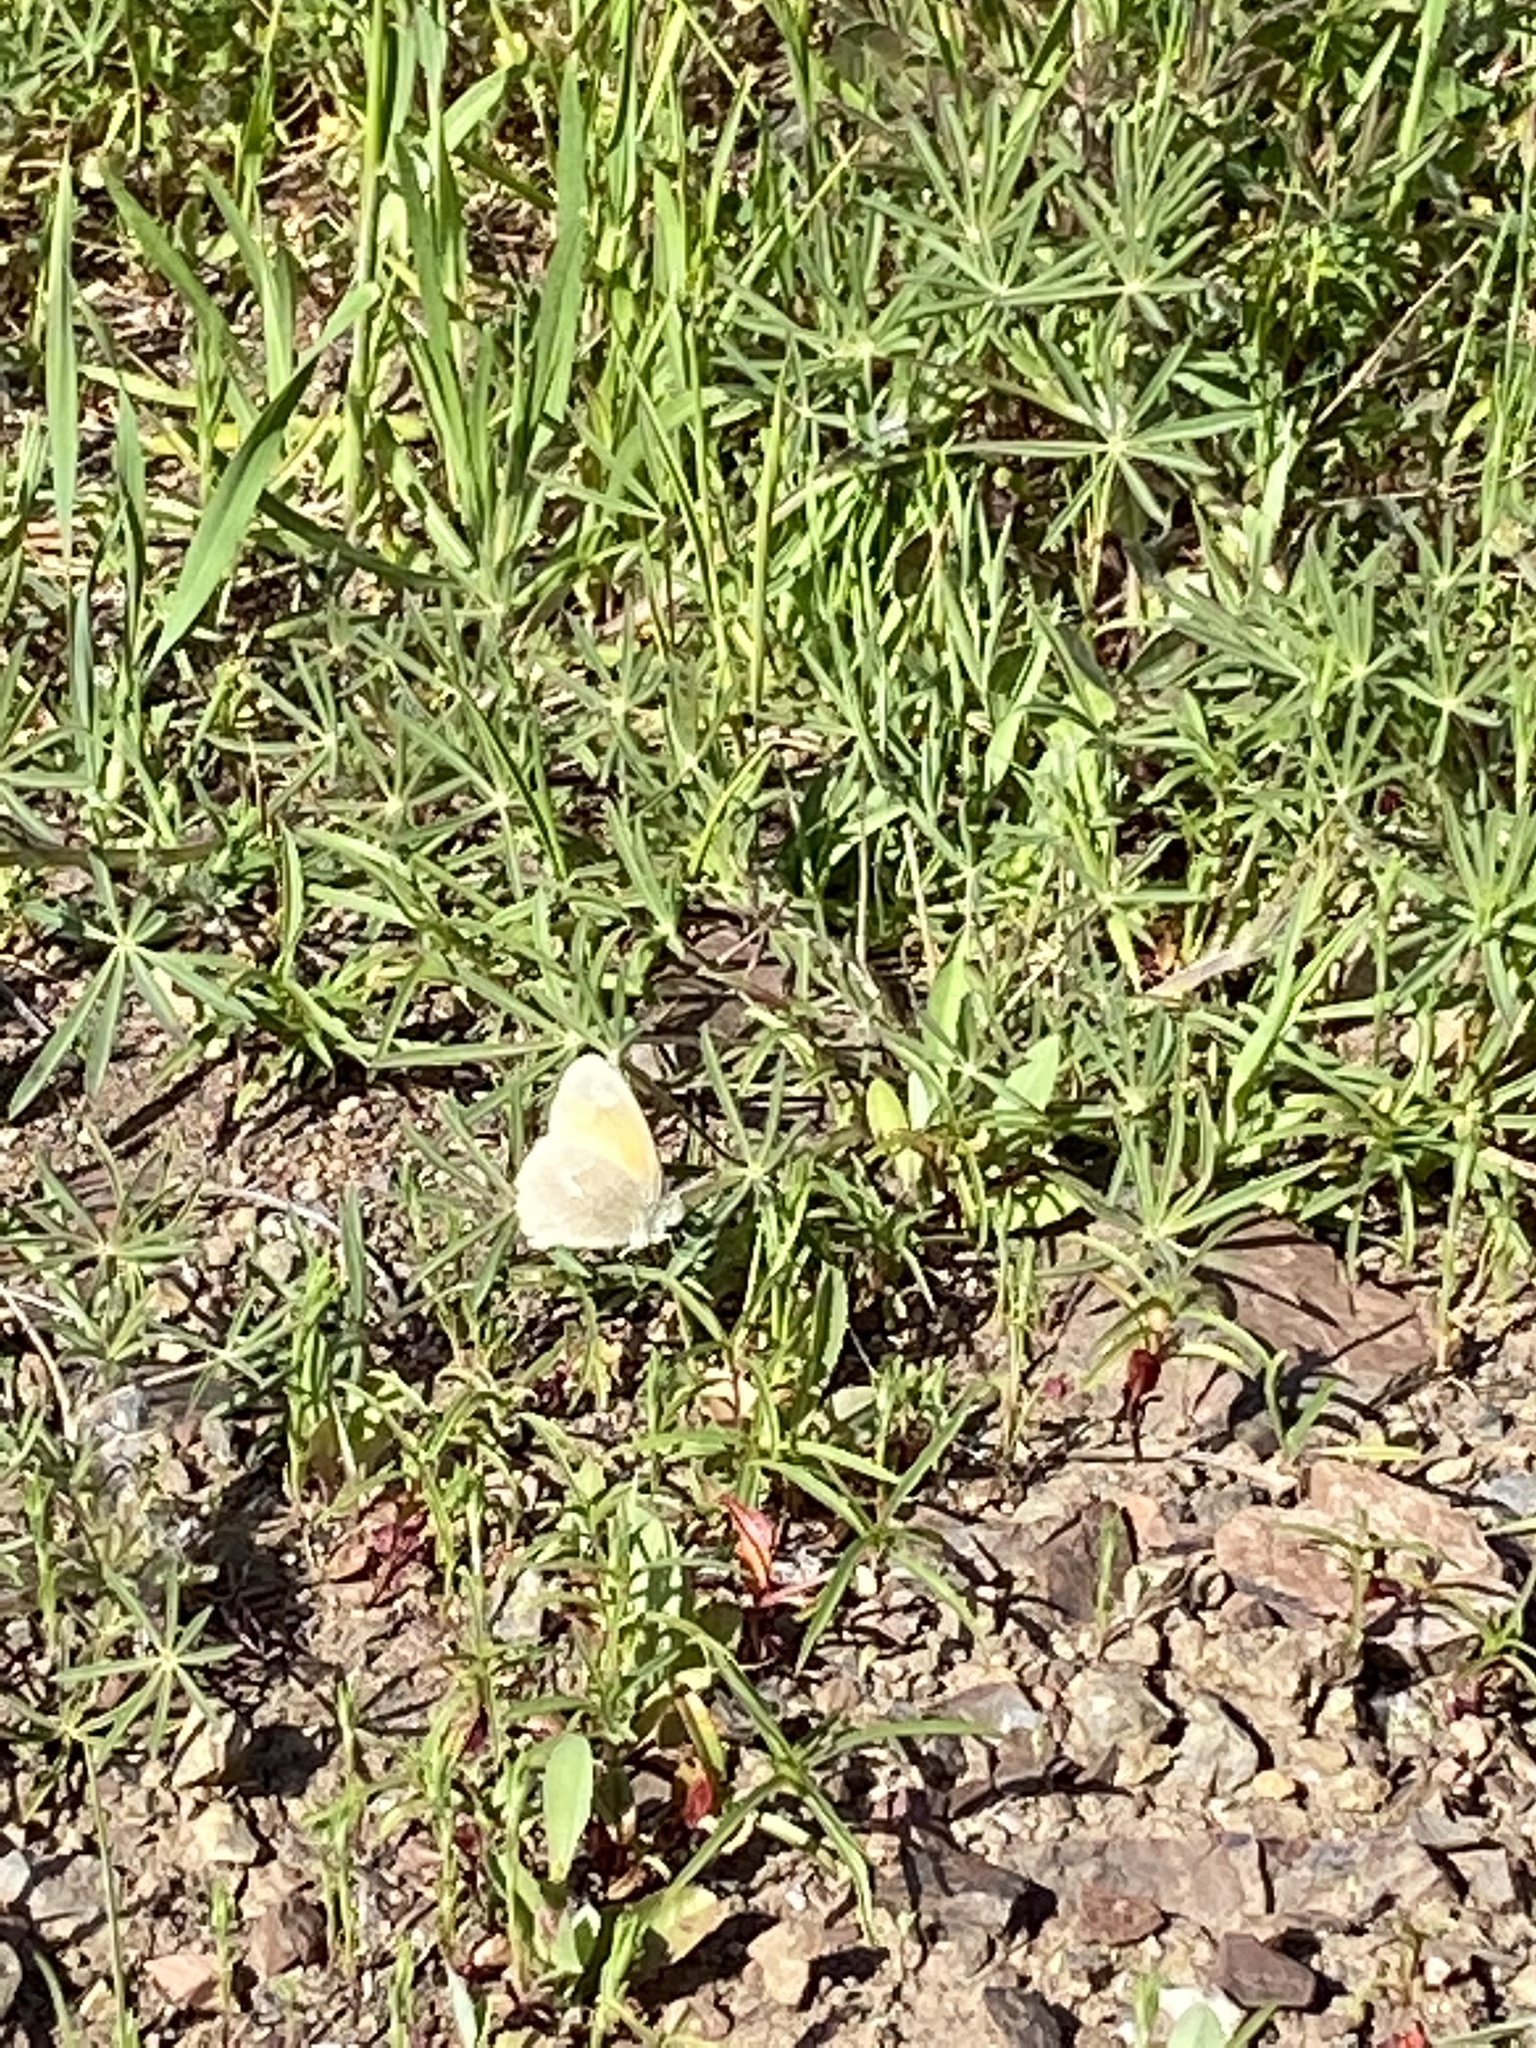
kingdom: Animalia
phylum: Arthropoda
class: Insecta
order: Lepidoptera
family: Nymphalidae
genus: Coenonympha
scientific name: Coenonympha california
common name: Common ringlet
